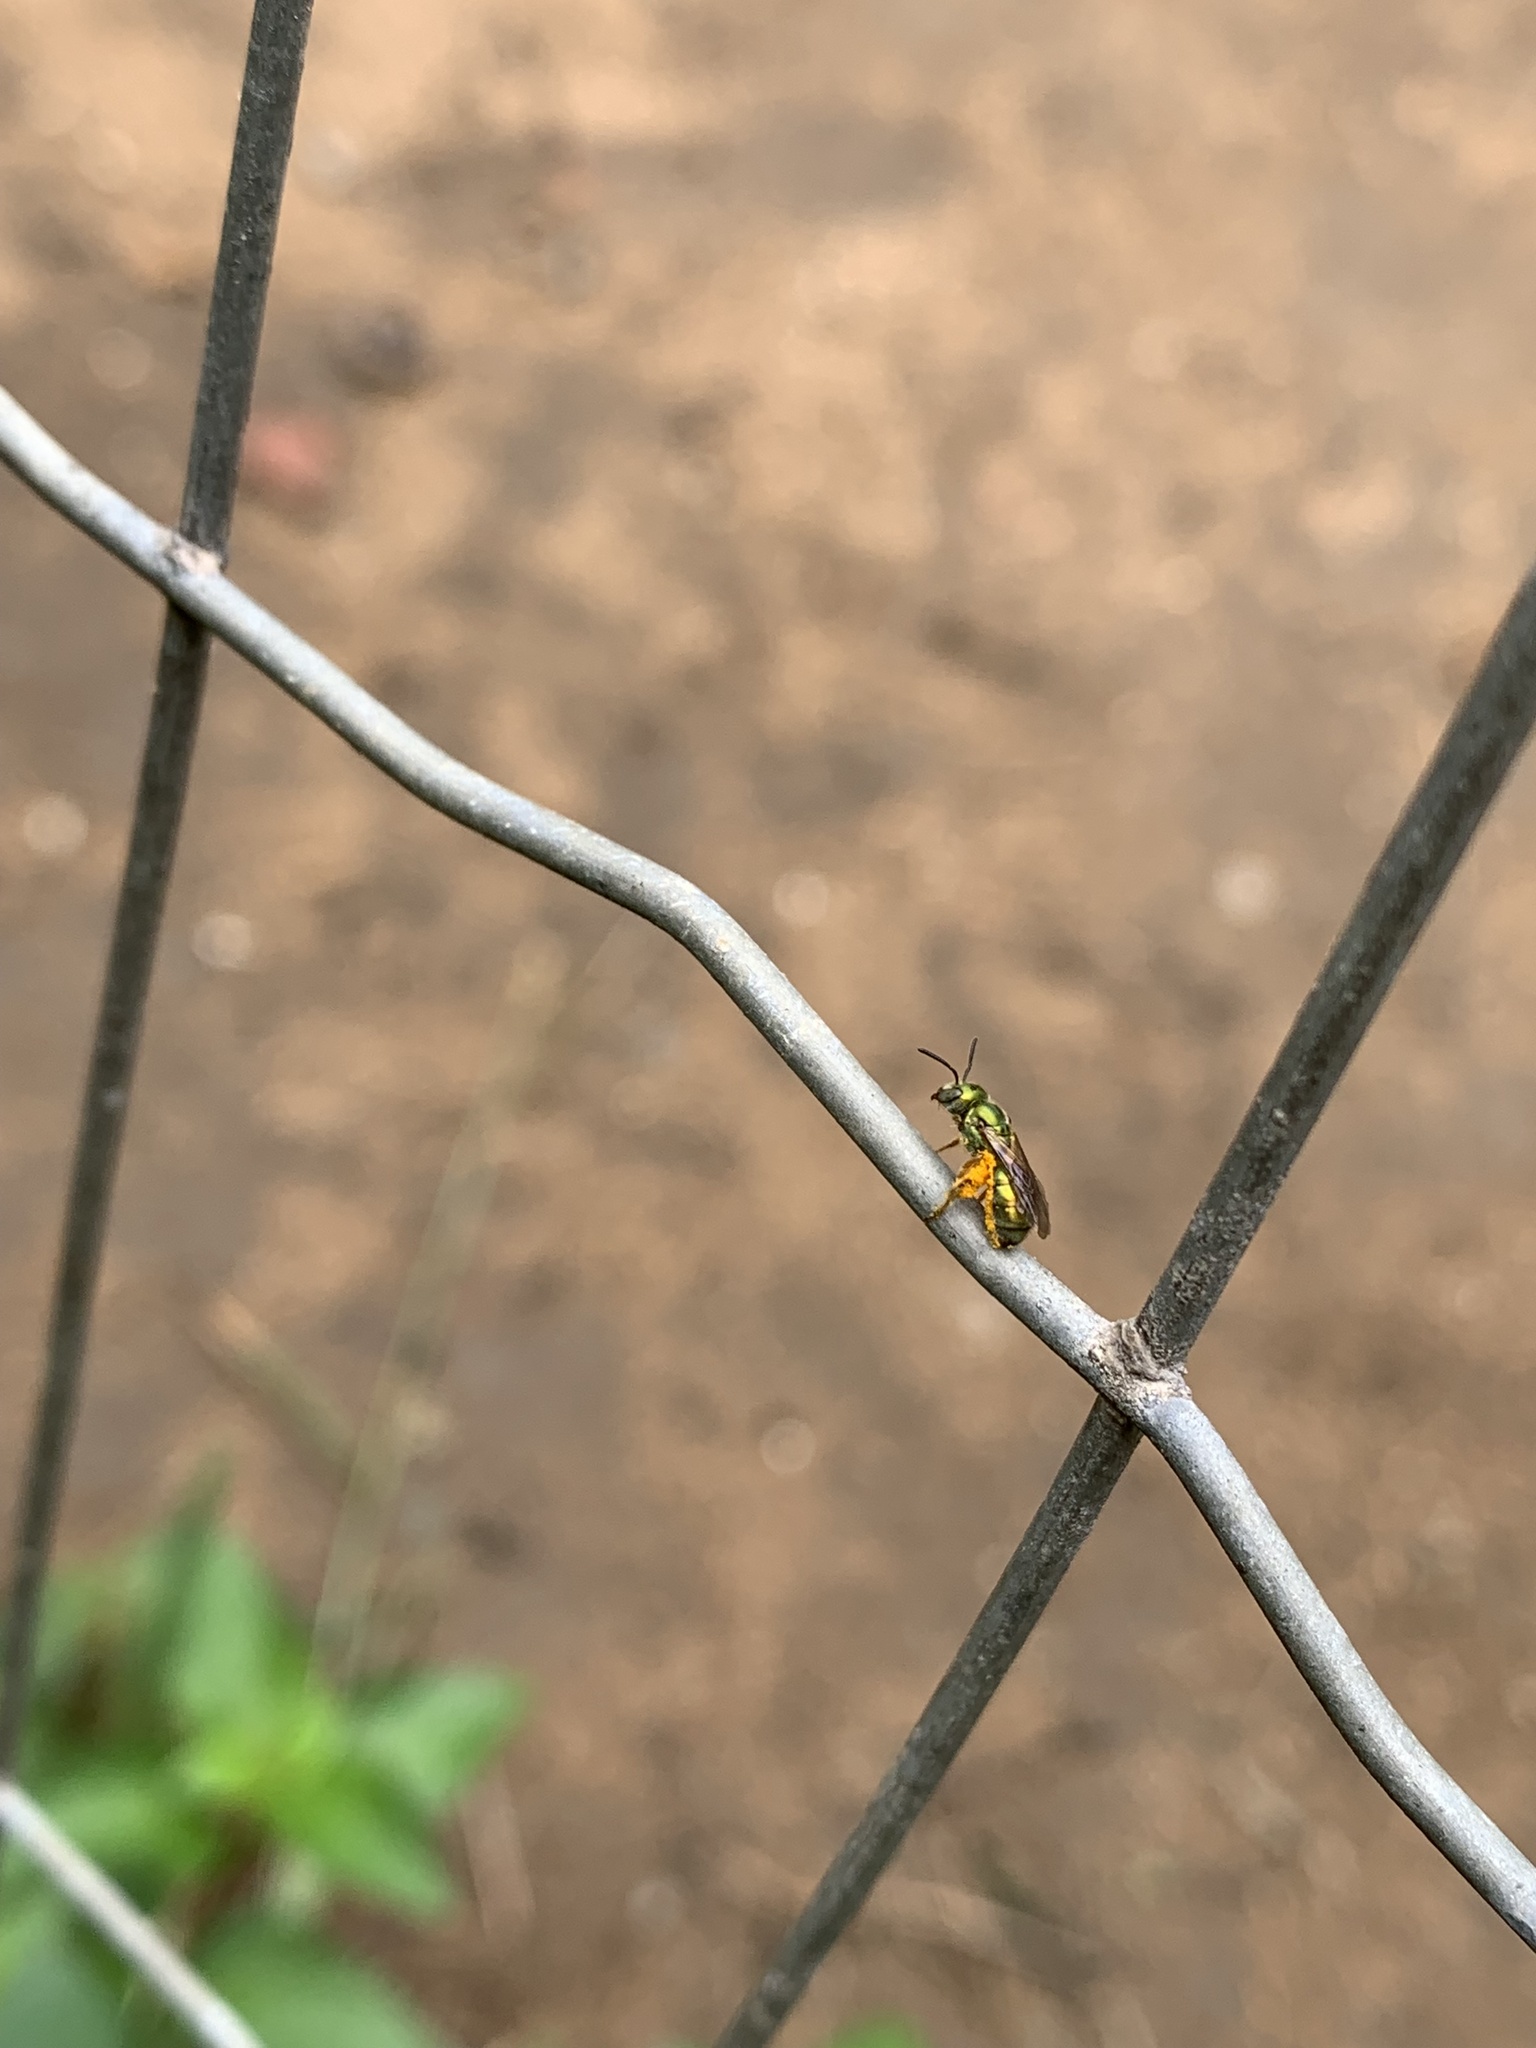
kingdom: Animalia
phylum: Arthropoda
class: Insecta
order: Hymenoptera
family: Halictidae
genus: Augochlora
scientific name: Augochlora aurifera
